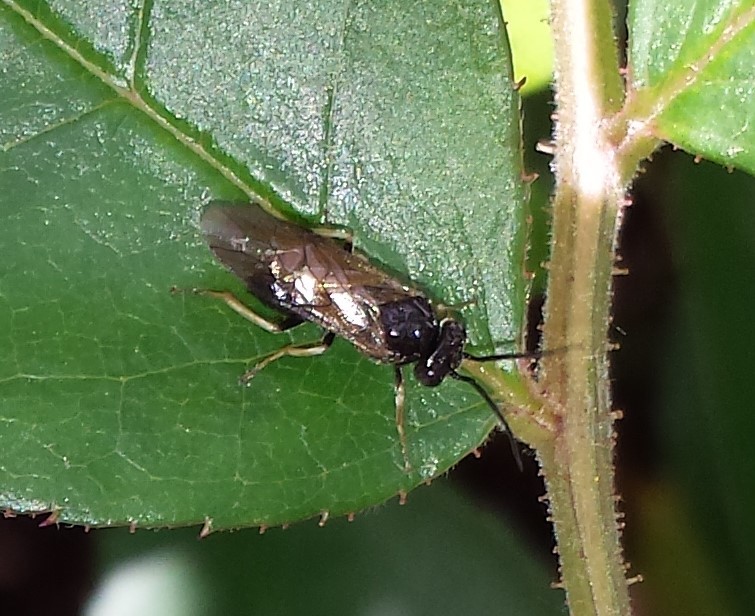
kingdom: Animalia
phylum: Arthropoda
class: Insecta
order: Hymenoptera
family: Tenthredinidae
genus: Cladius
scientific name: Cladius pectinicornis
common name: Sawfly
